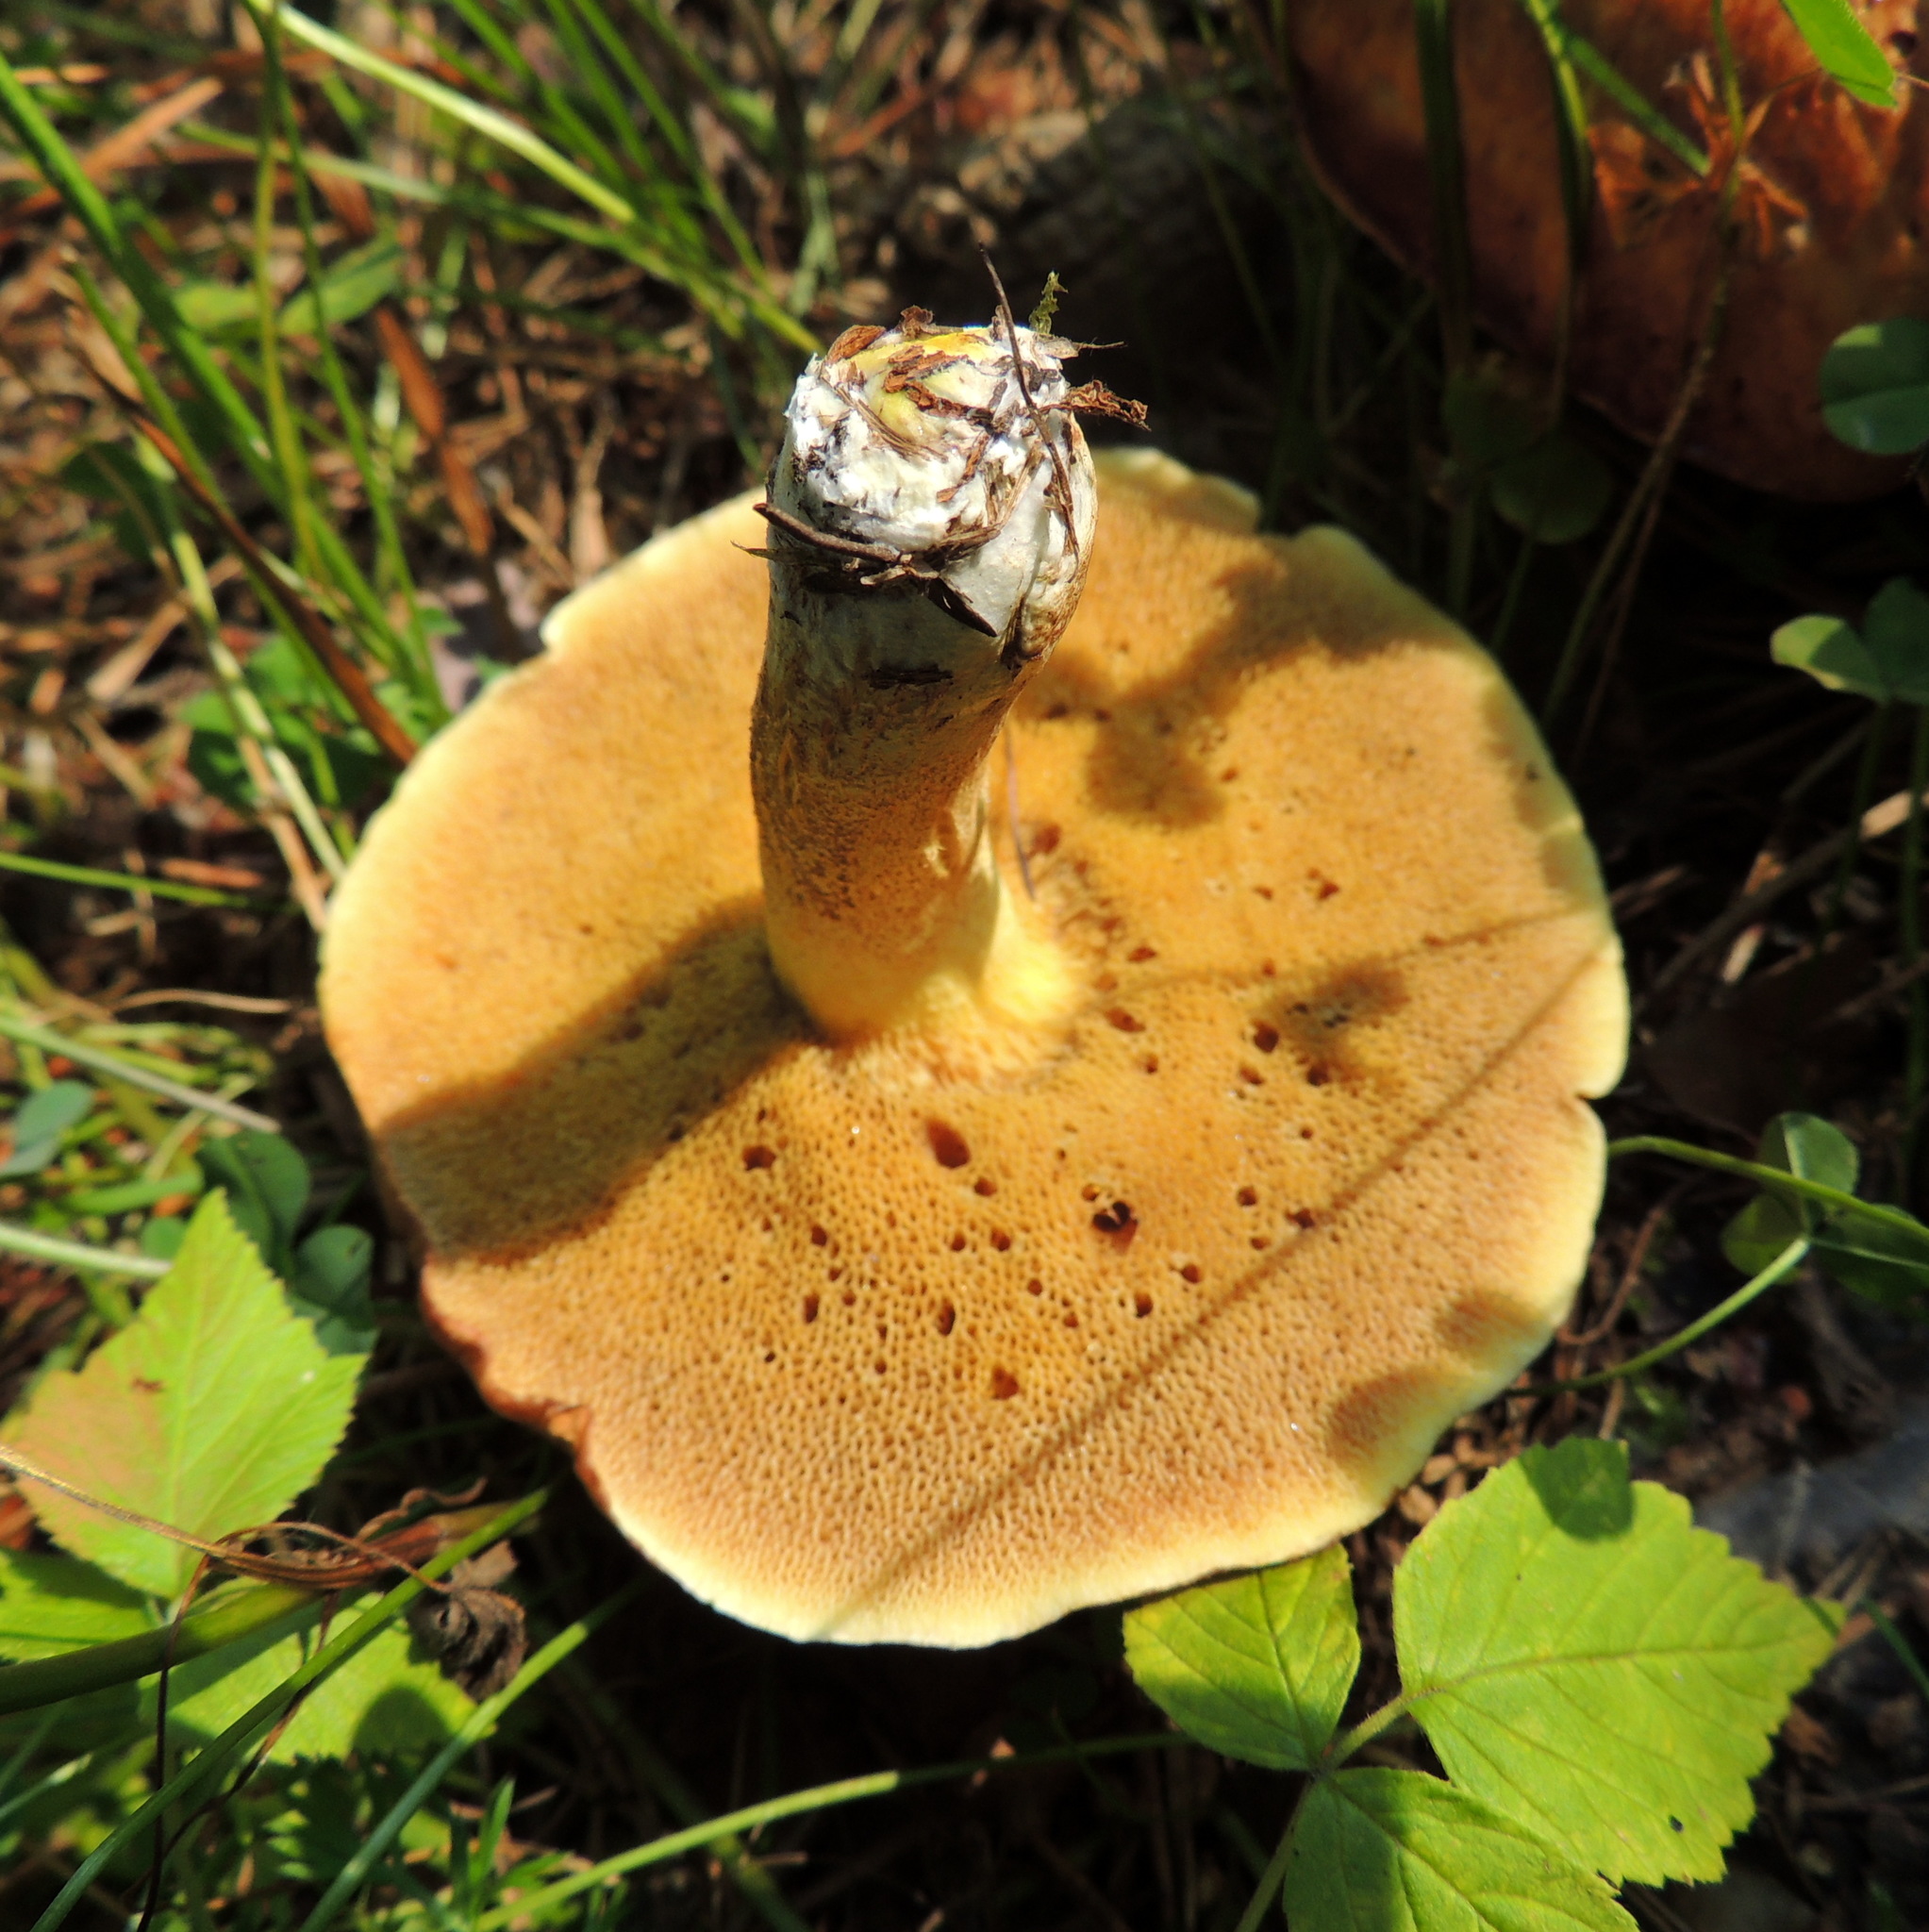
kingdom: Fungi
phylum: Basidiomycota
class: Agaricomycetes
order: Boletales
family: Suillaceae
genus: Suillus
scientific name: Suillus granulatus
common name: Weeping bolete
